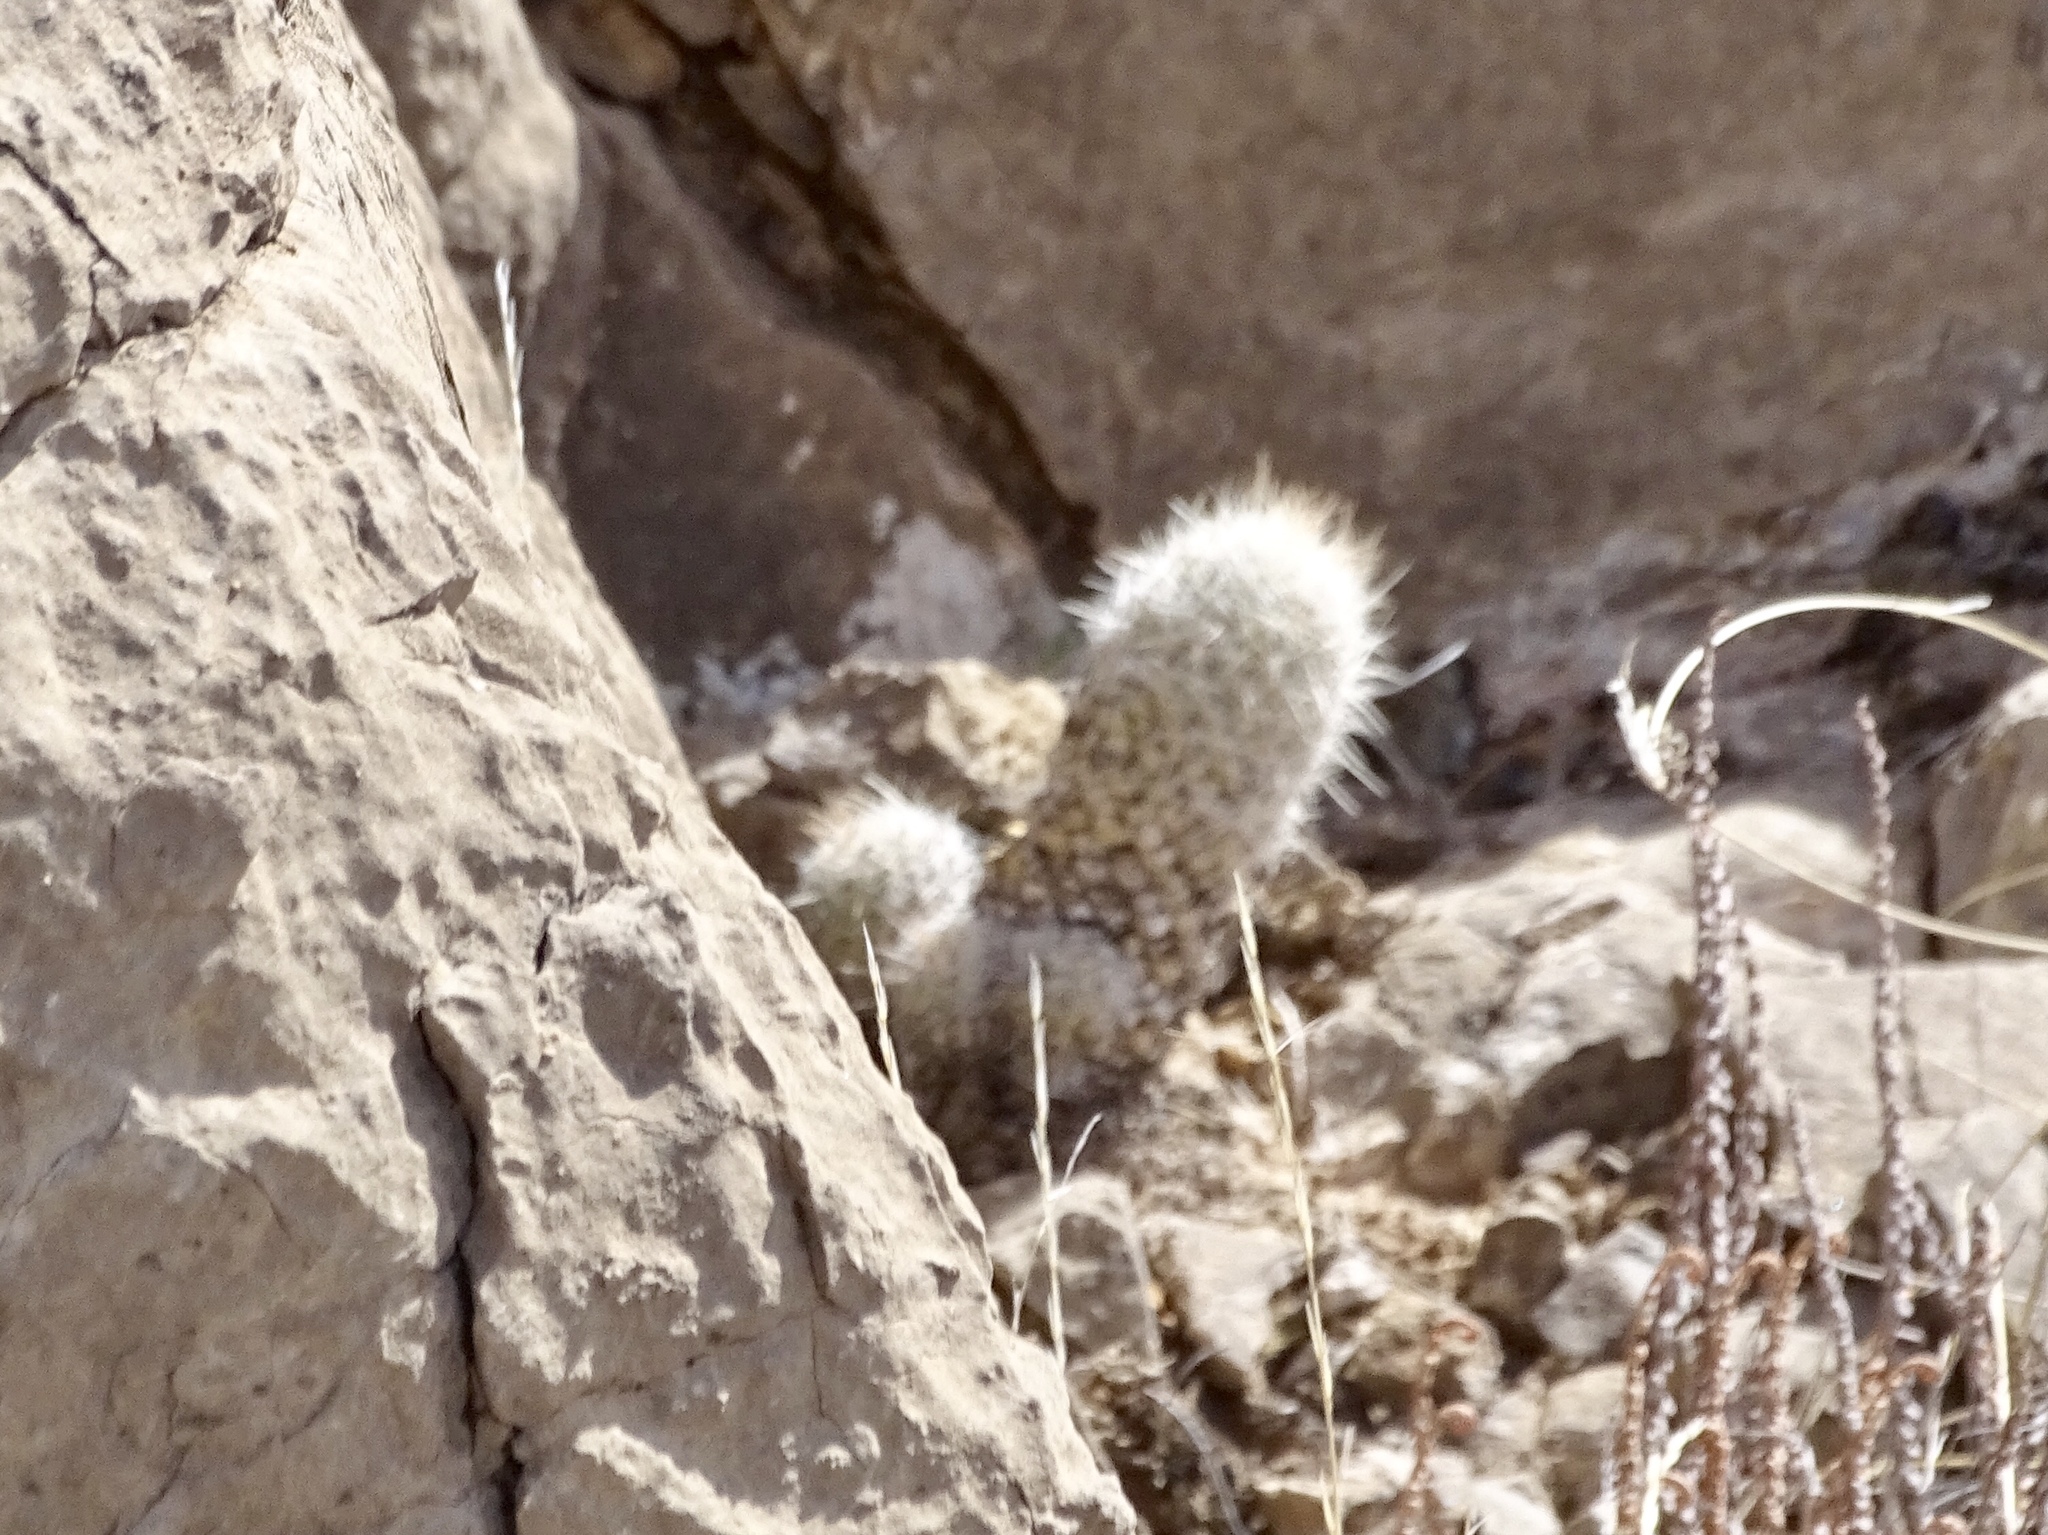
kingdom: Plantae
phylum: Tracheophyta
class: Magnoliopsida
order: Caryophyllales
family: Cactaceae
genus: Pelecyphora
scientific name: Pelecyphora tuberculosa
